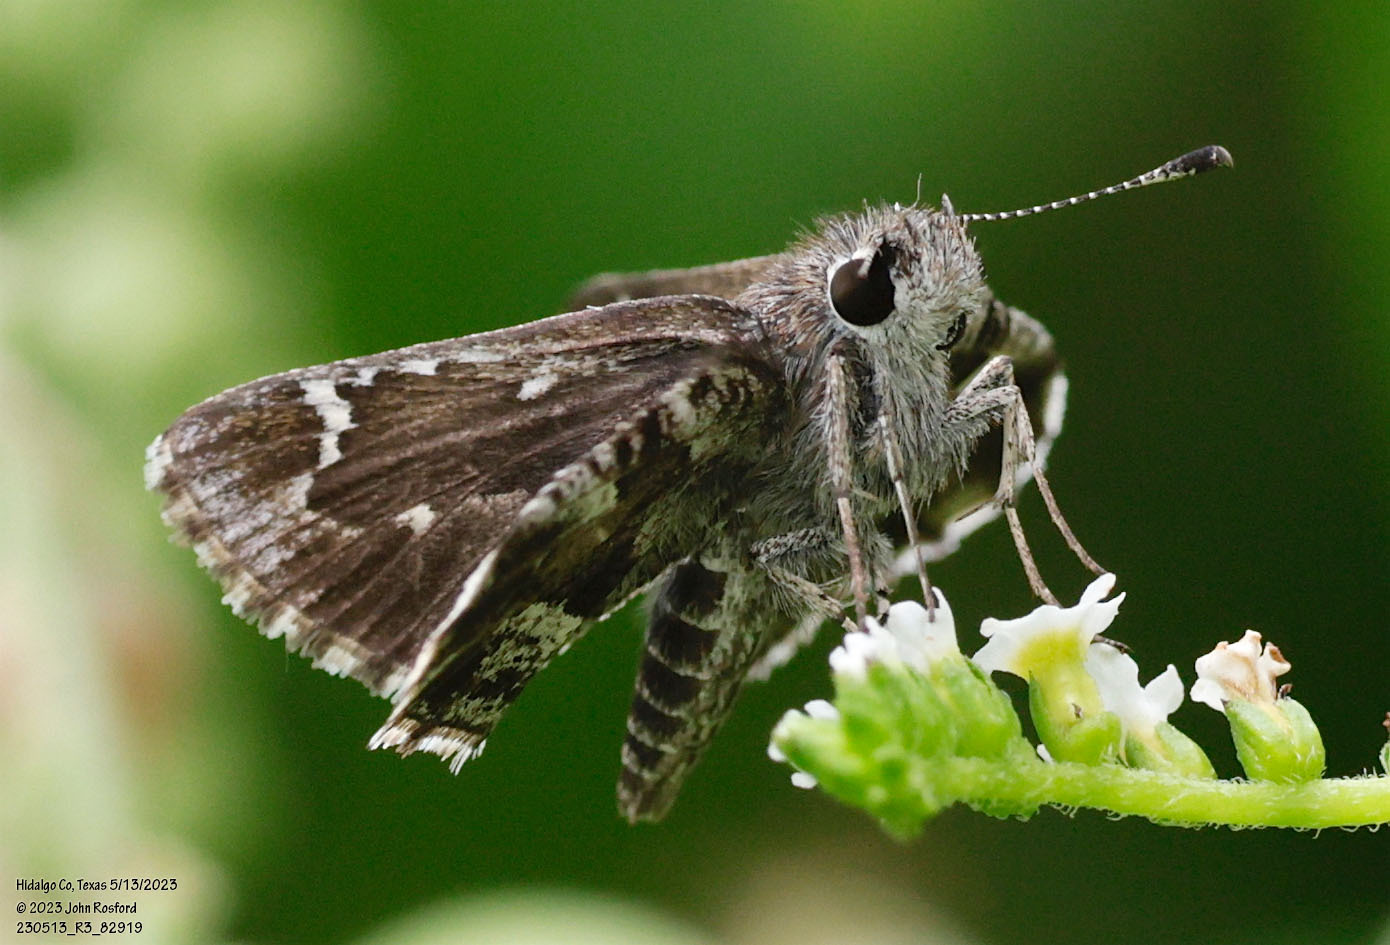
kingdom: Animalia
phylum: Arthropoda
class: Insecta
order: Lepidoptera
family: Hesperiidae
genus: Mastor
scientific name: Mastor nysa
